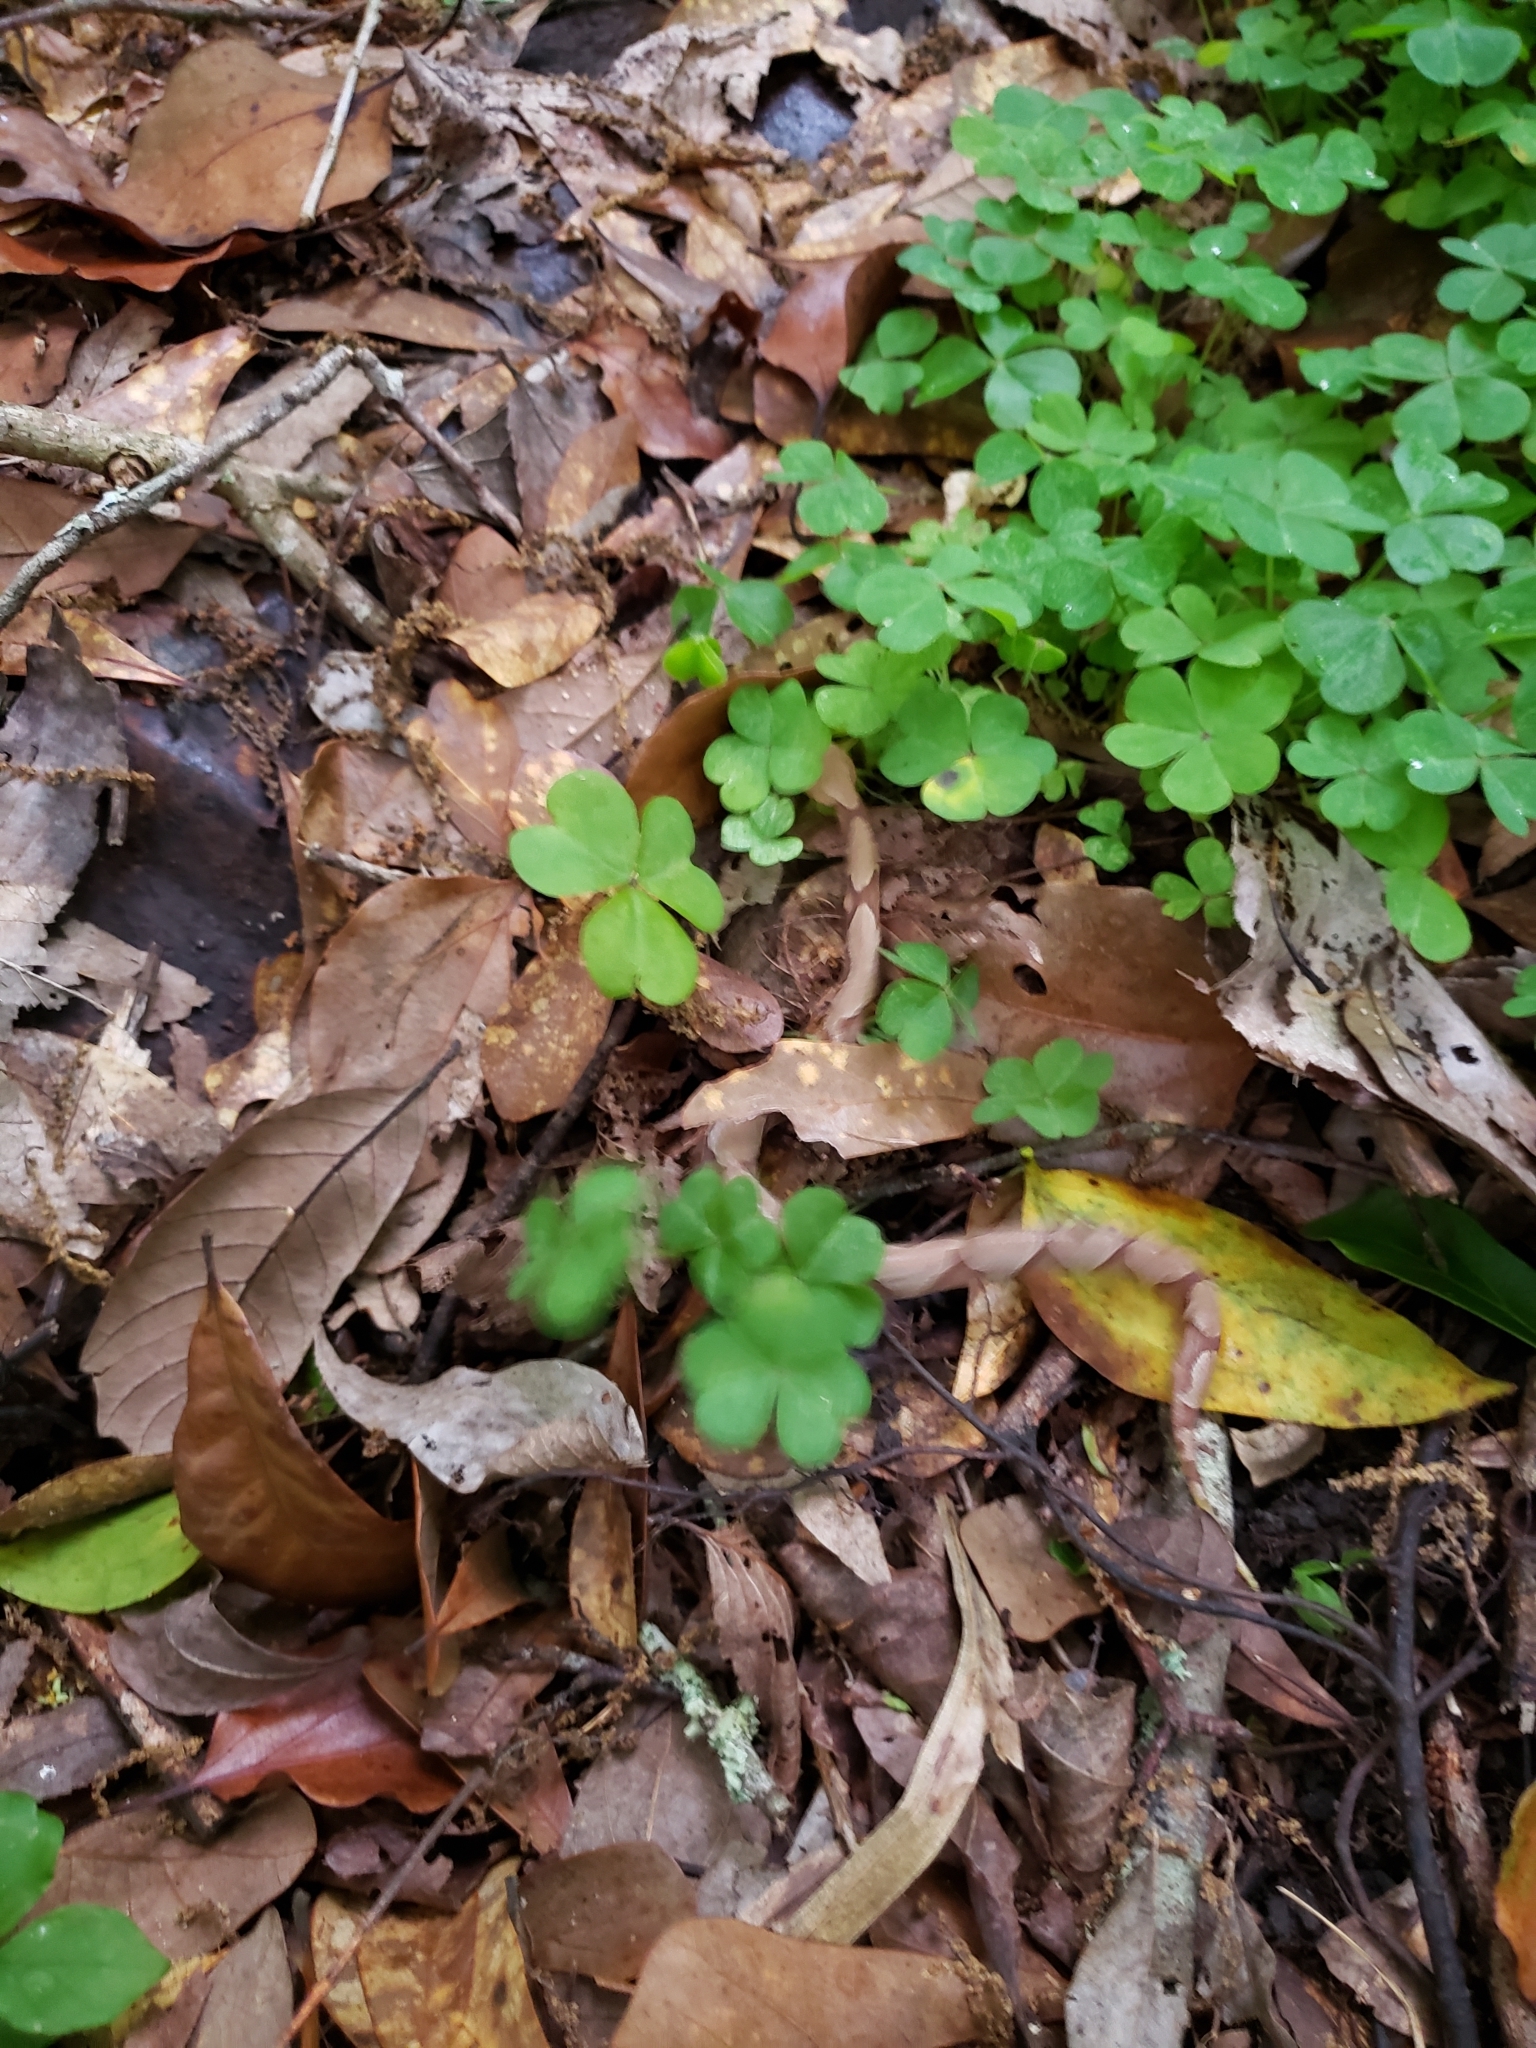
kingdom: Animalia
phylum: Chordata
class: Squamata
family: Viperidae
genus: Agkistrodon
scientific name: Agkistrodon contortrix
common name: Northern copperhead
